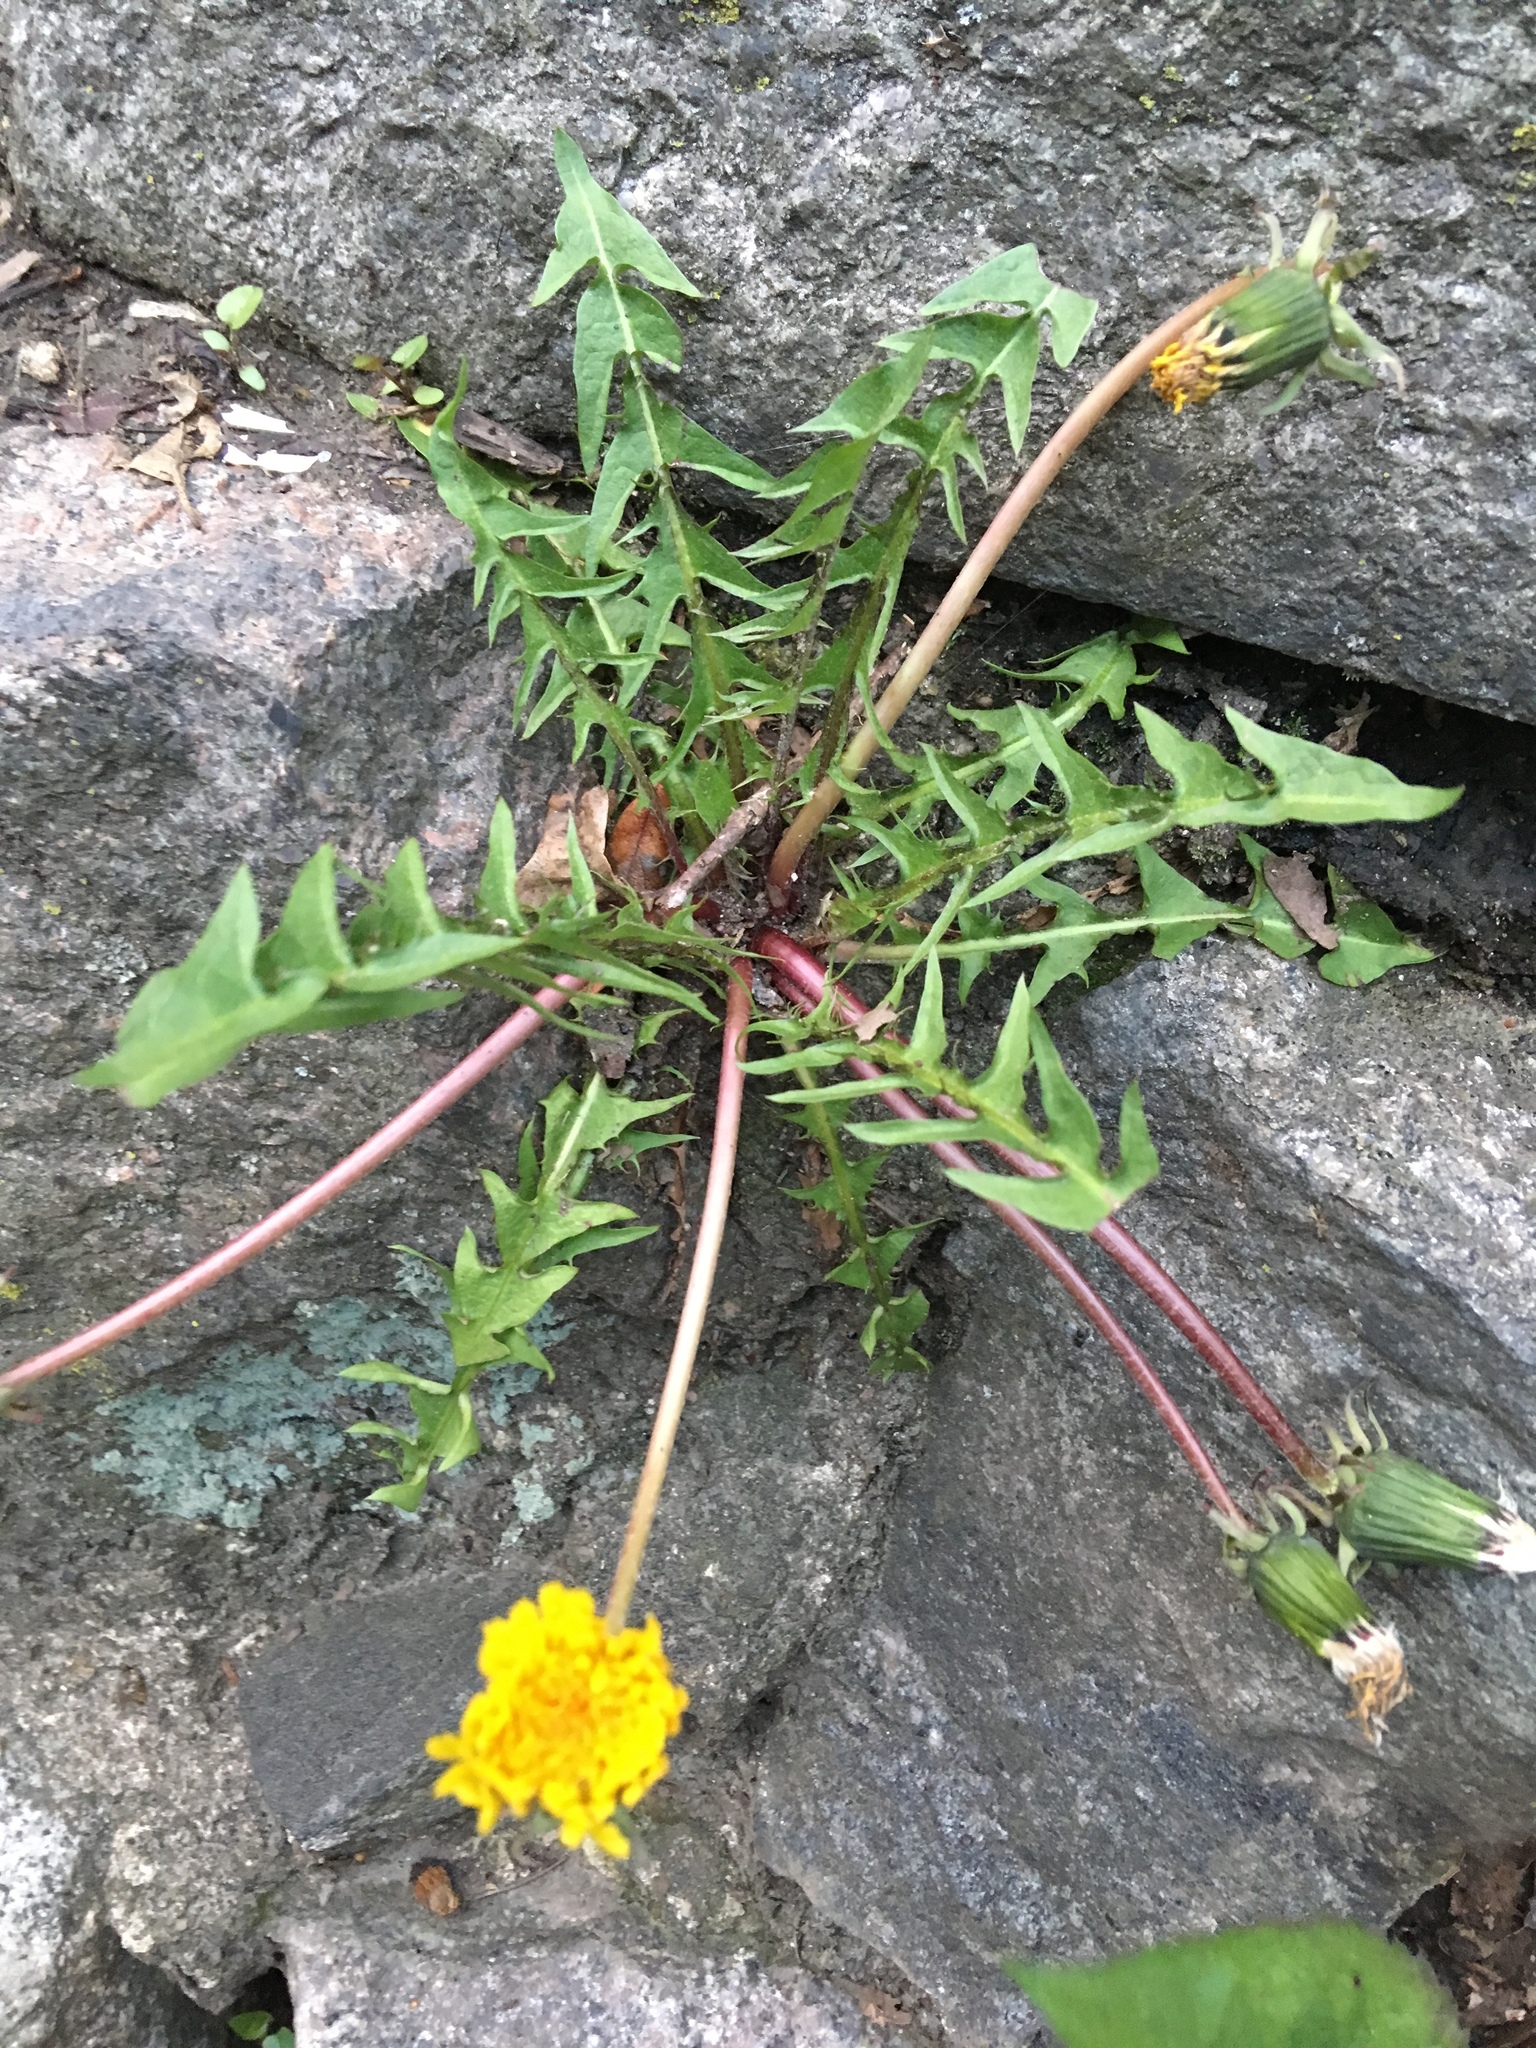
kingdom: Plantae
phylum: Tracheophyta
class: Magnoliopsida
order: Asterales
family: Asteraceae
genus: Taraxacum
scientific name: Taraxacum officinale
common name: Common dandelion
